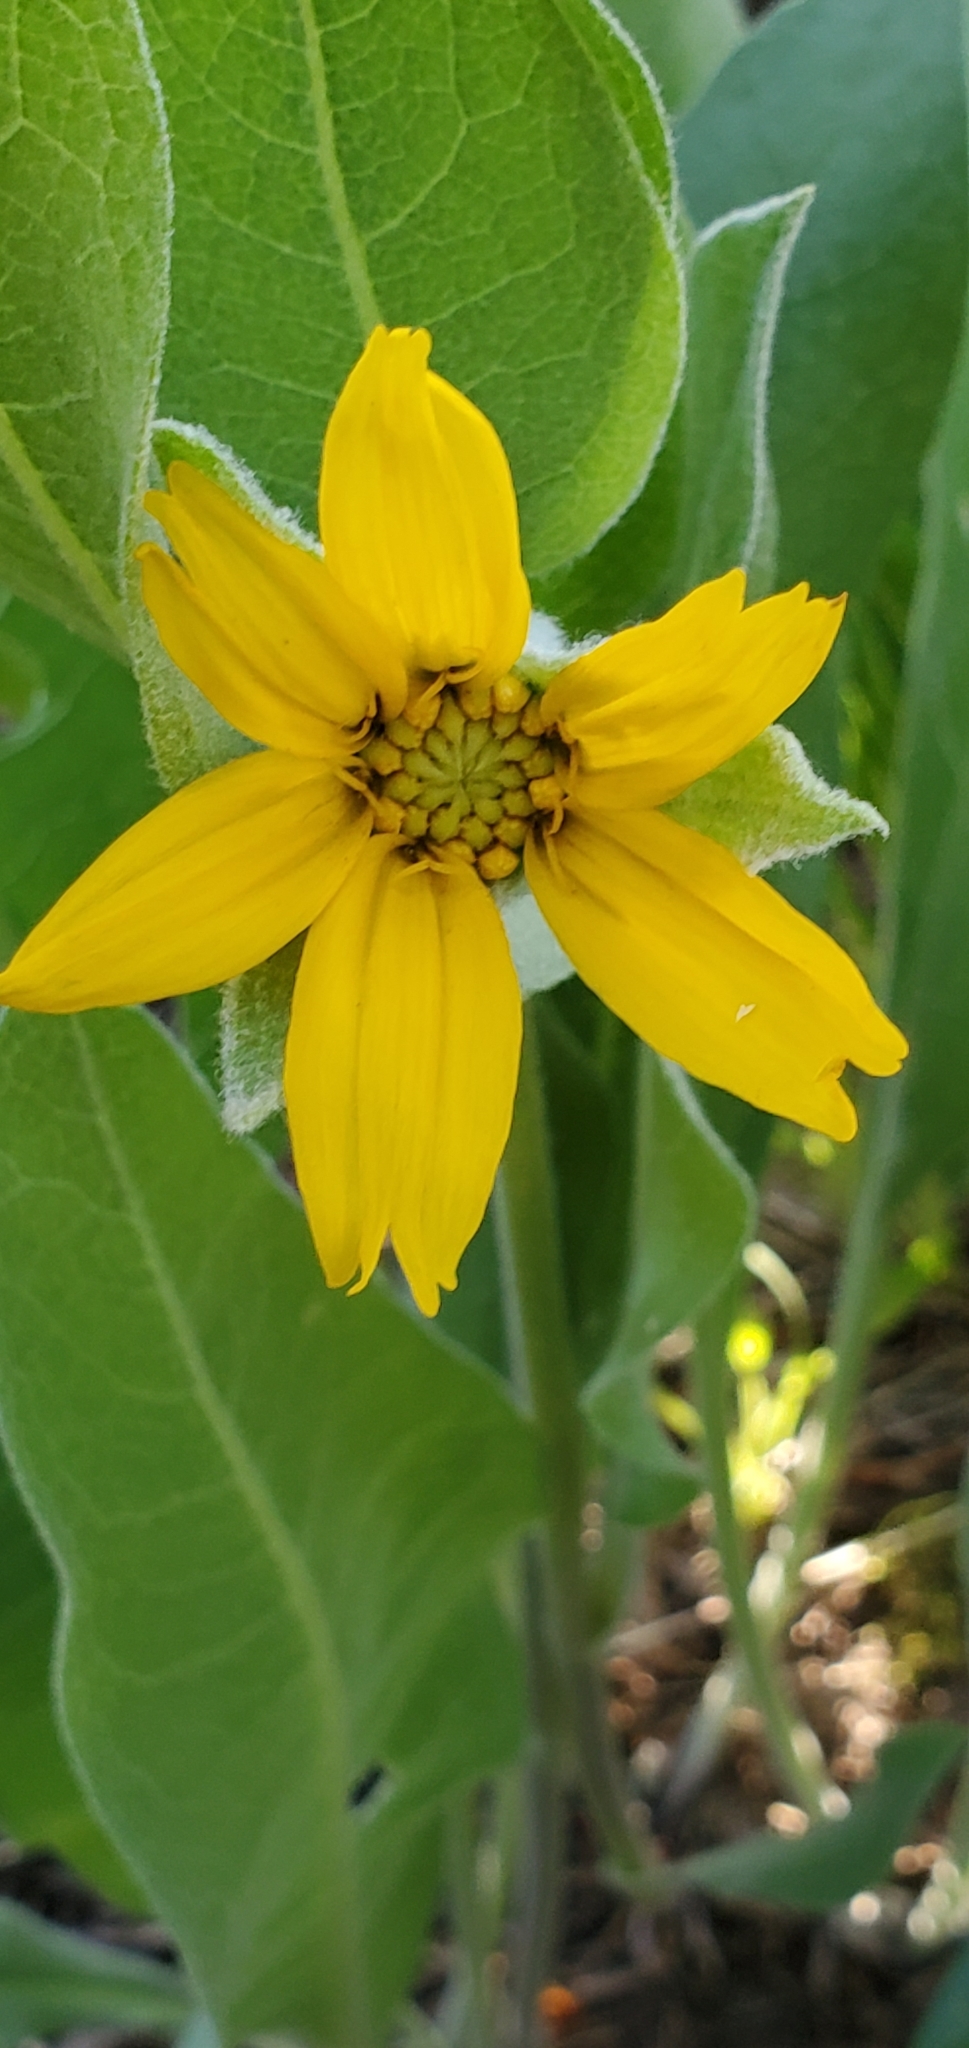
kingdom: Plantae
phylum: Tracheophyta
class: Magnoliopsida
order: Asterales
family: Asteraceae
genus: Wyethia
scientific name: Wyethia mollis
